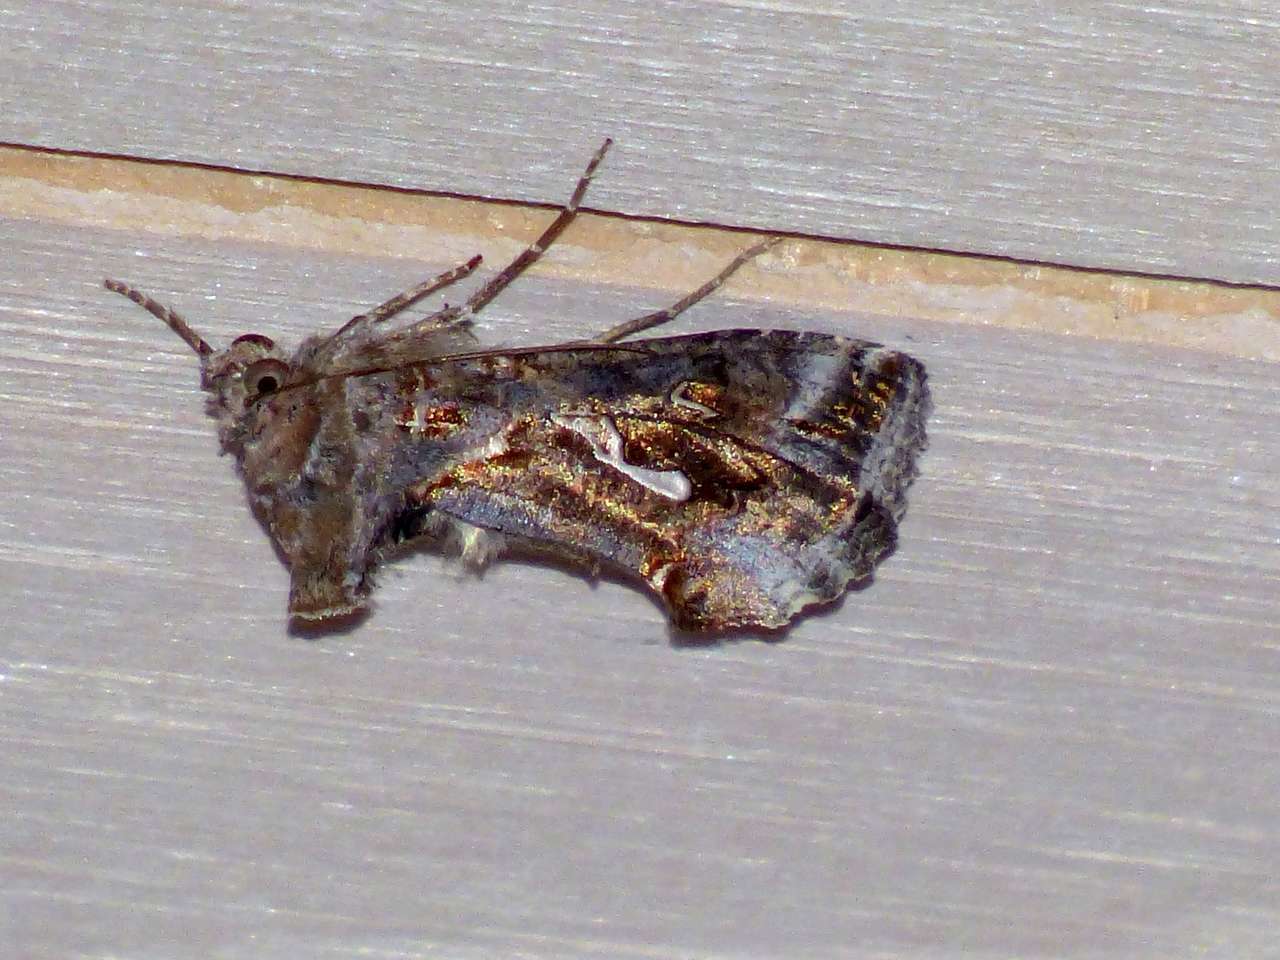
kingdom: Animalia
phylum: Arthropoda
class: Insecta
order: Lepidoptera
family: Noctuidae
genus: Chrysodeixis
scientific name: Chrysodeixis argentifera
